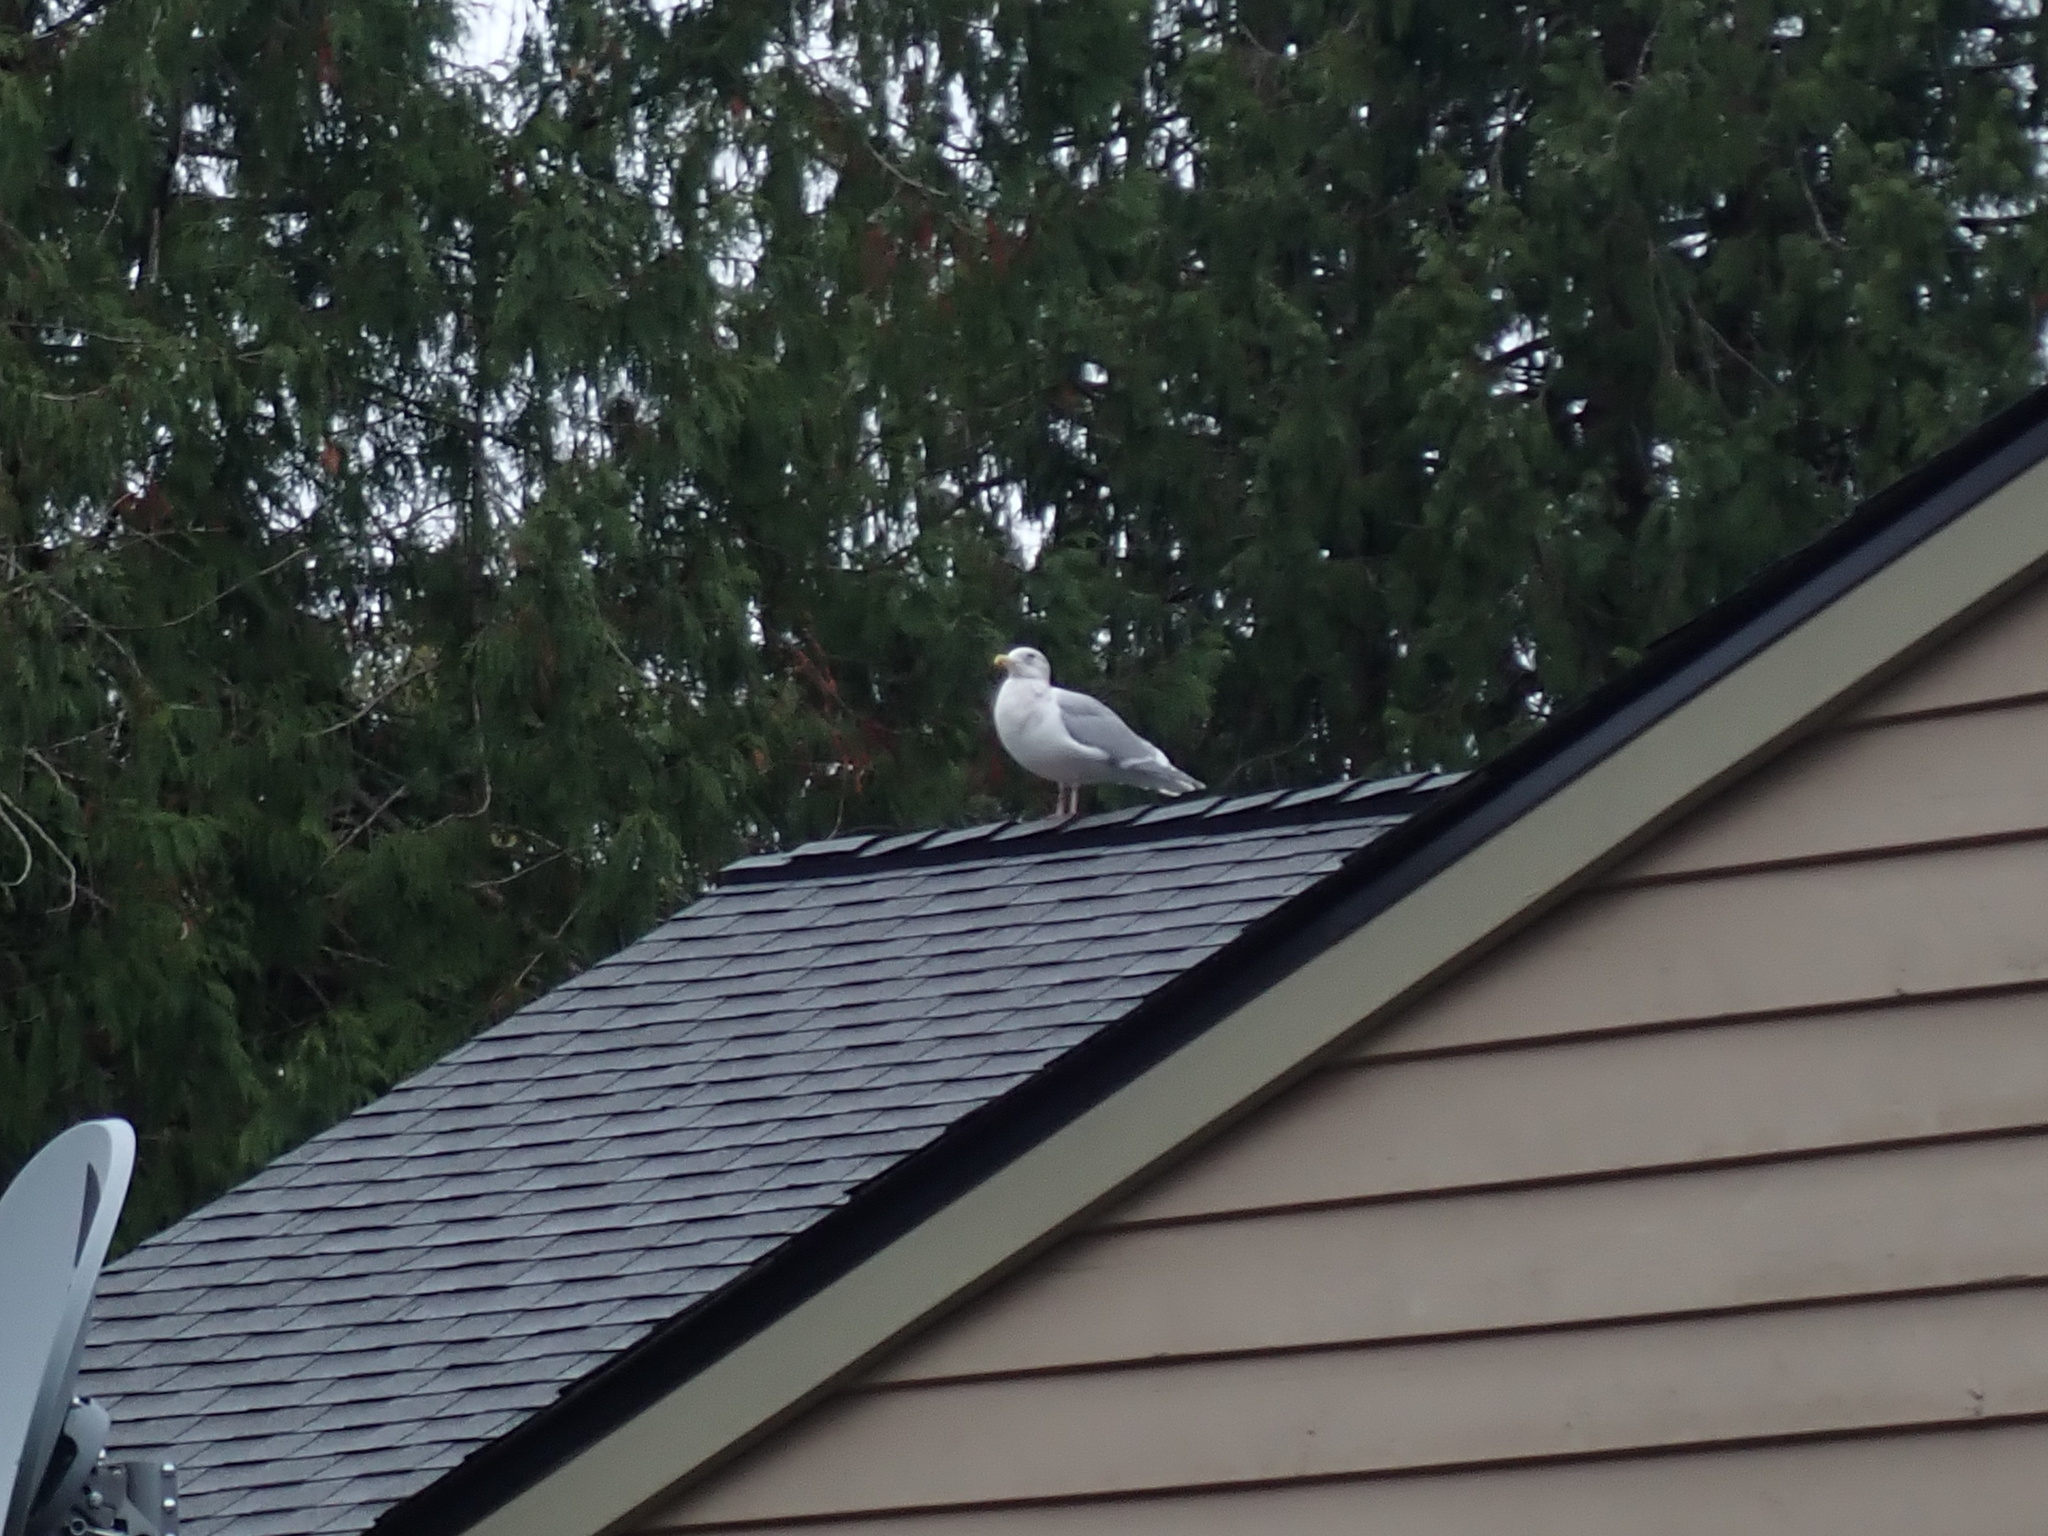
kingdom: Animalia
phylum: Chordata
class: Aves
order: Charadriiformes
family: Laridae
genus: Larus
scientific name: Larus glaucescens
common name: Glaucous-winged gull
